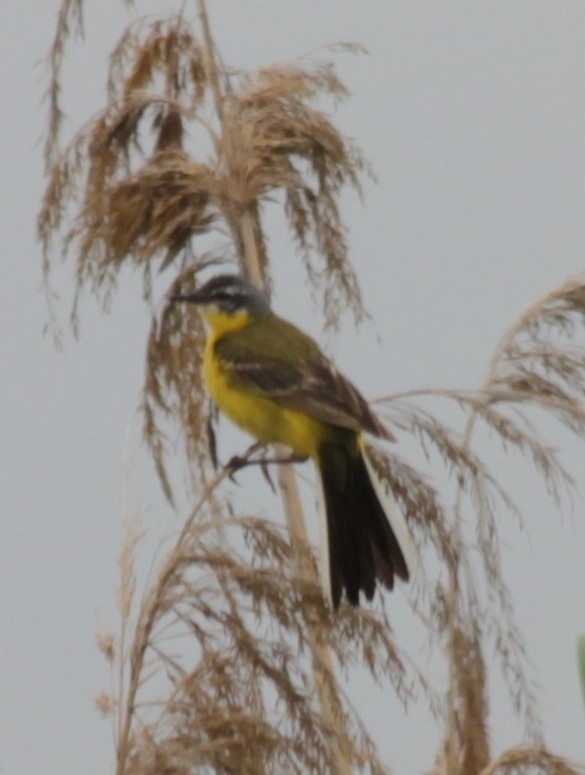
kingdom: Animalia
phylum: Chordata
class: Aves
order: Passeriformes
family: Motacillidae
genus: Motacilla
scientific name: Motacilla flava
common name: Western yellow wagtail
